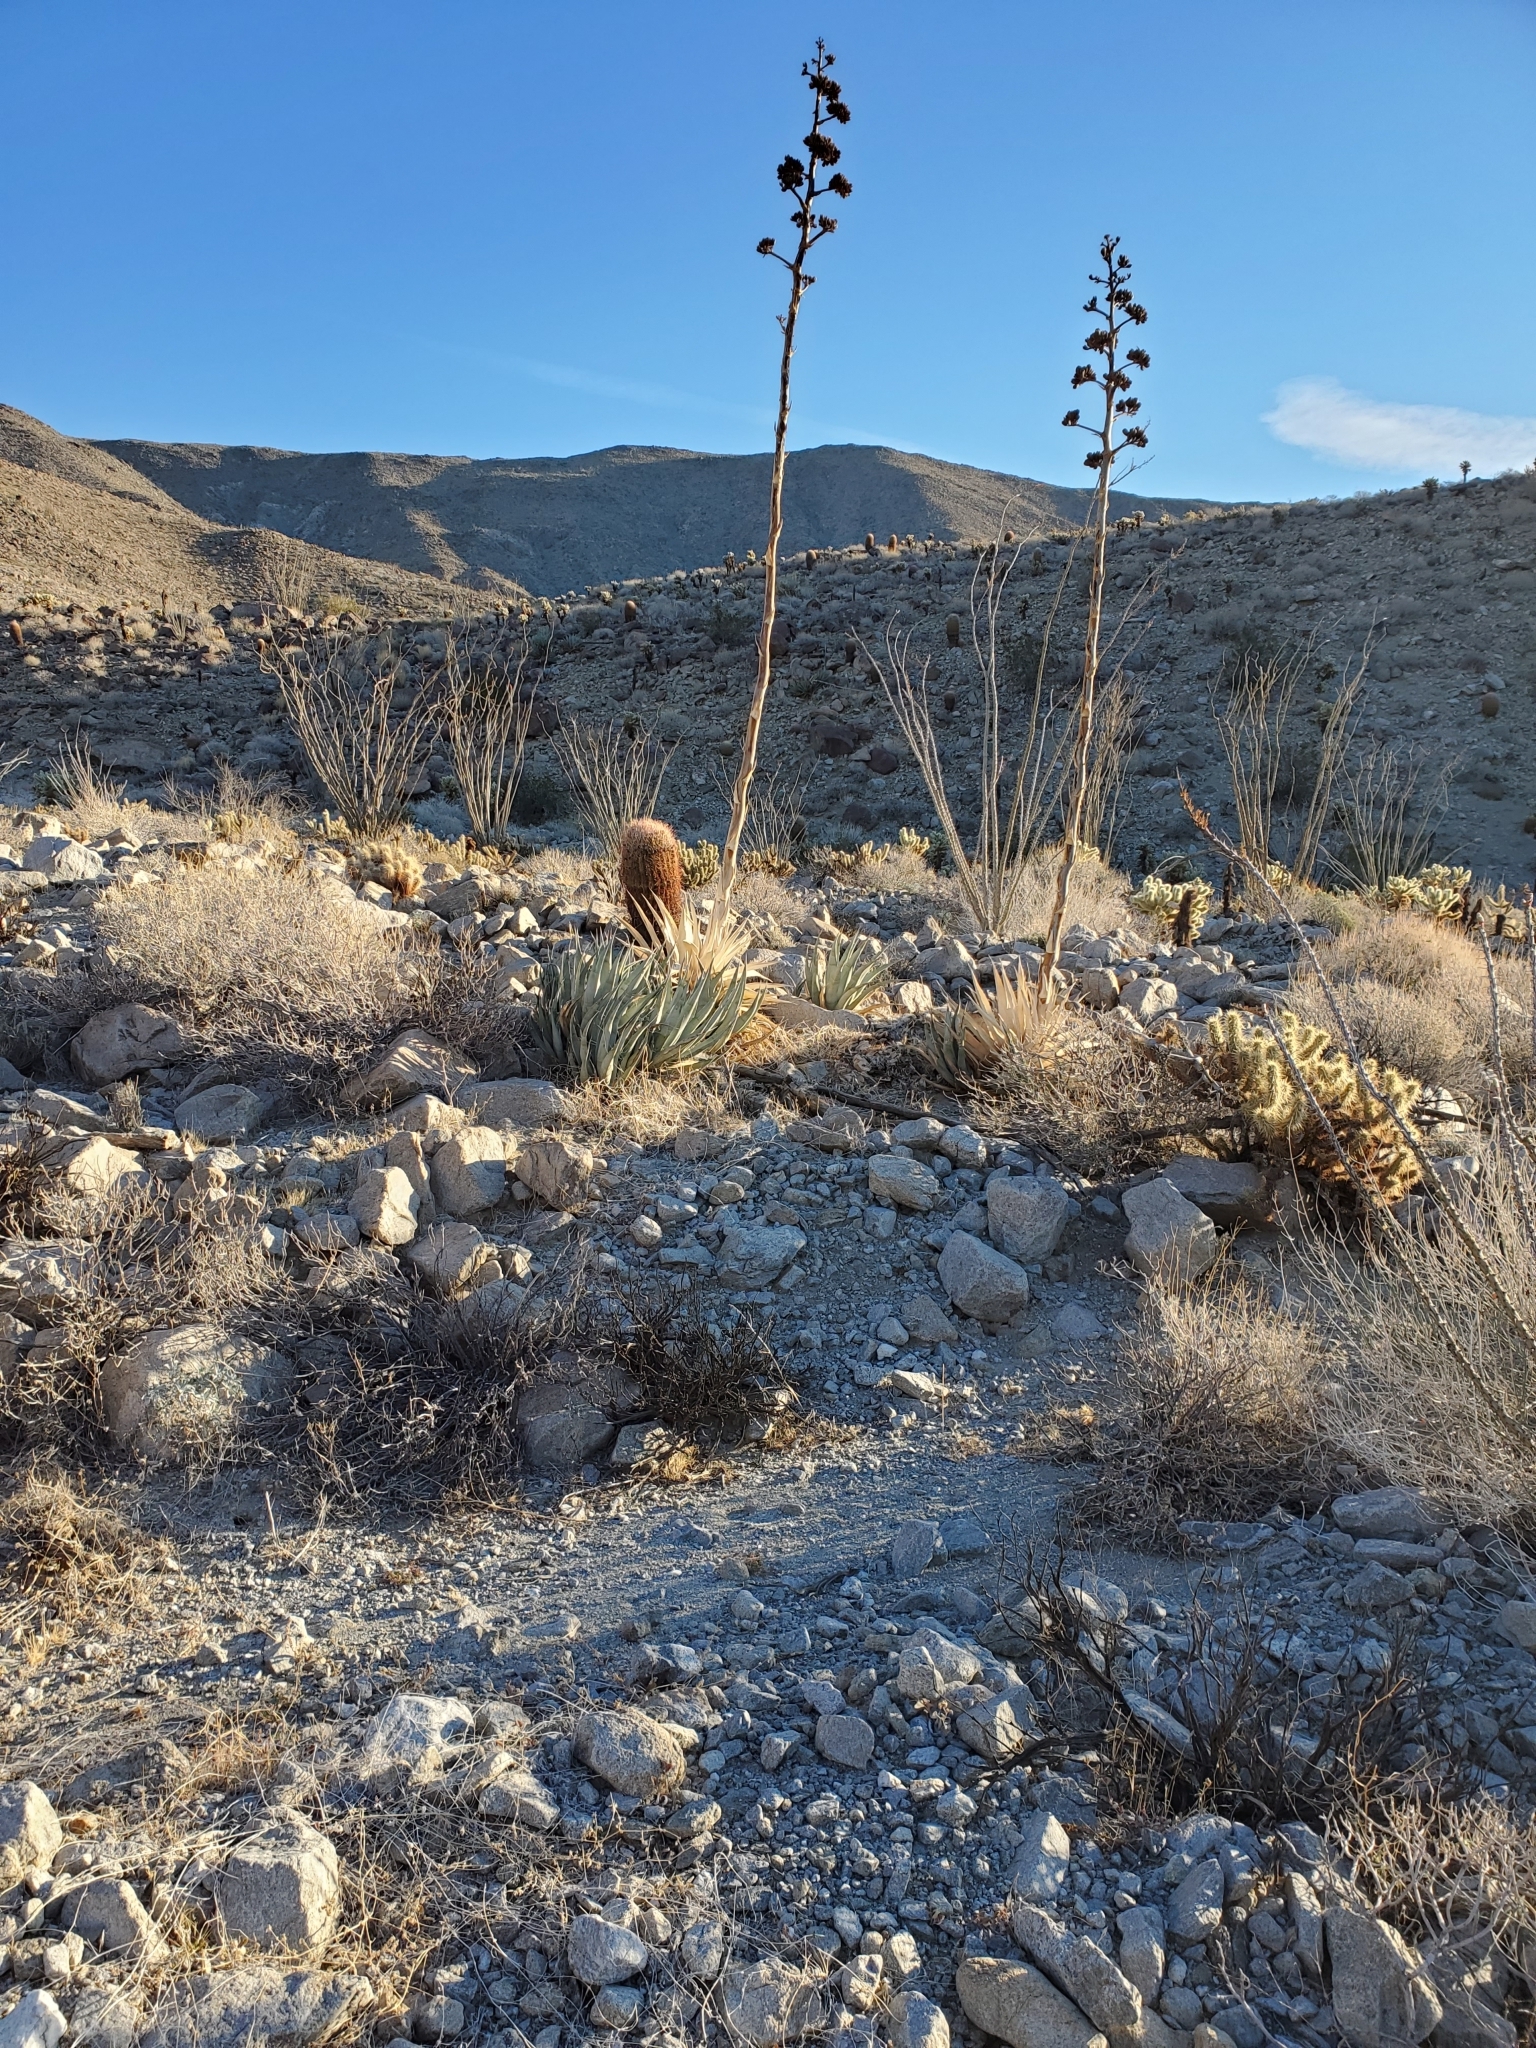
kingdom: Plantae
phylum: Tracheophyta
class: Liliopsida
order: Asparagales
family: Asparagaceae
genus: Agave
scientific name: Agave deserti
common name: Desert agave
